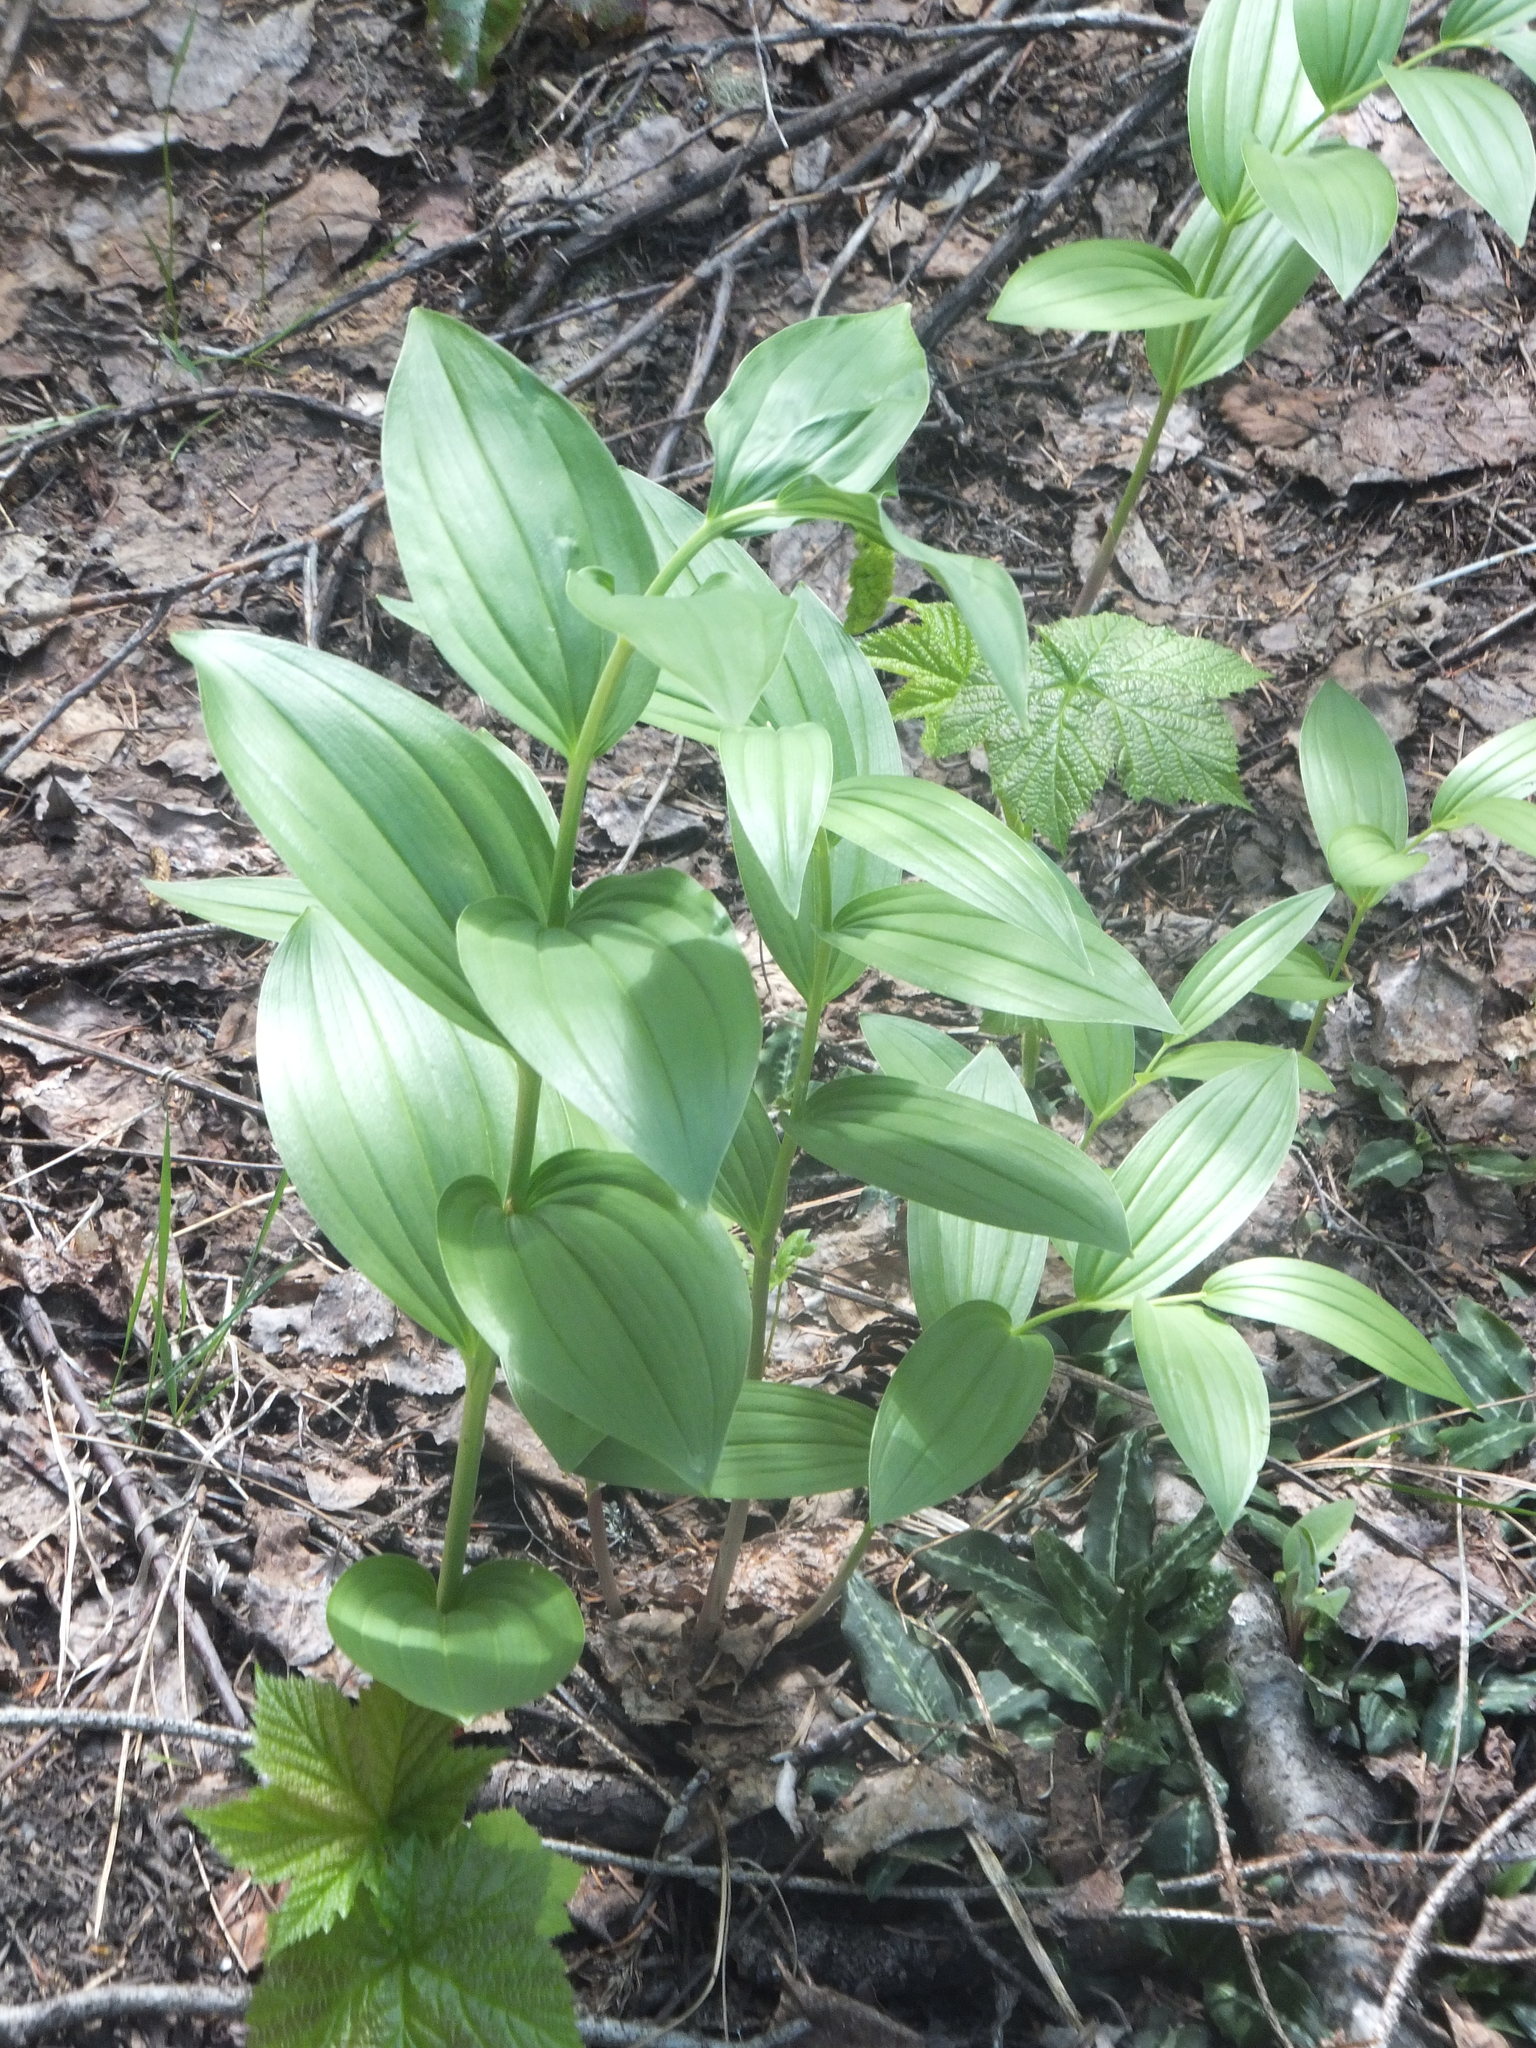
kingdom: Plantae
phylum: Tracheophyta
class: Liliopsida
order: Asparagales
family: Asparagaceae
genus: Maianthemum
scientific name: Maianthemum racemosum
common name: False spikenard
